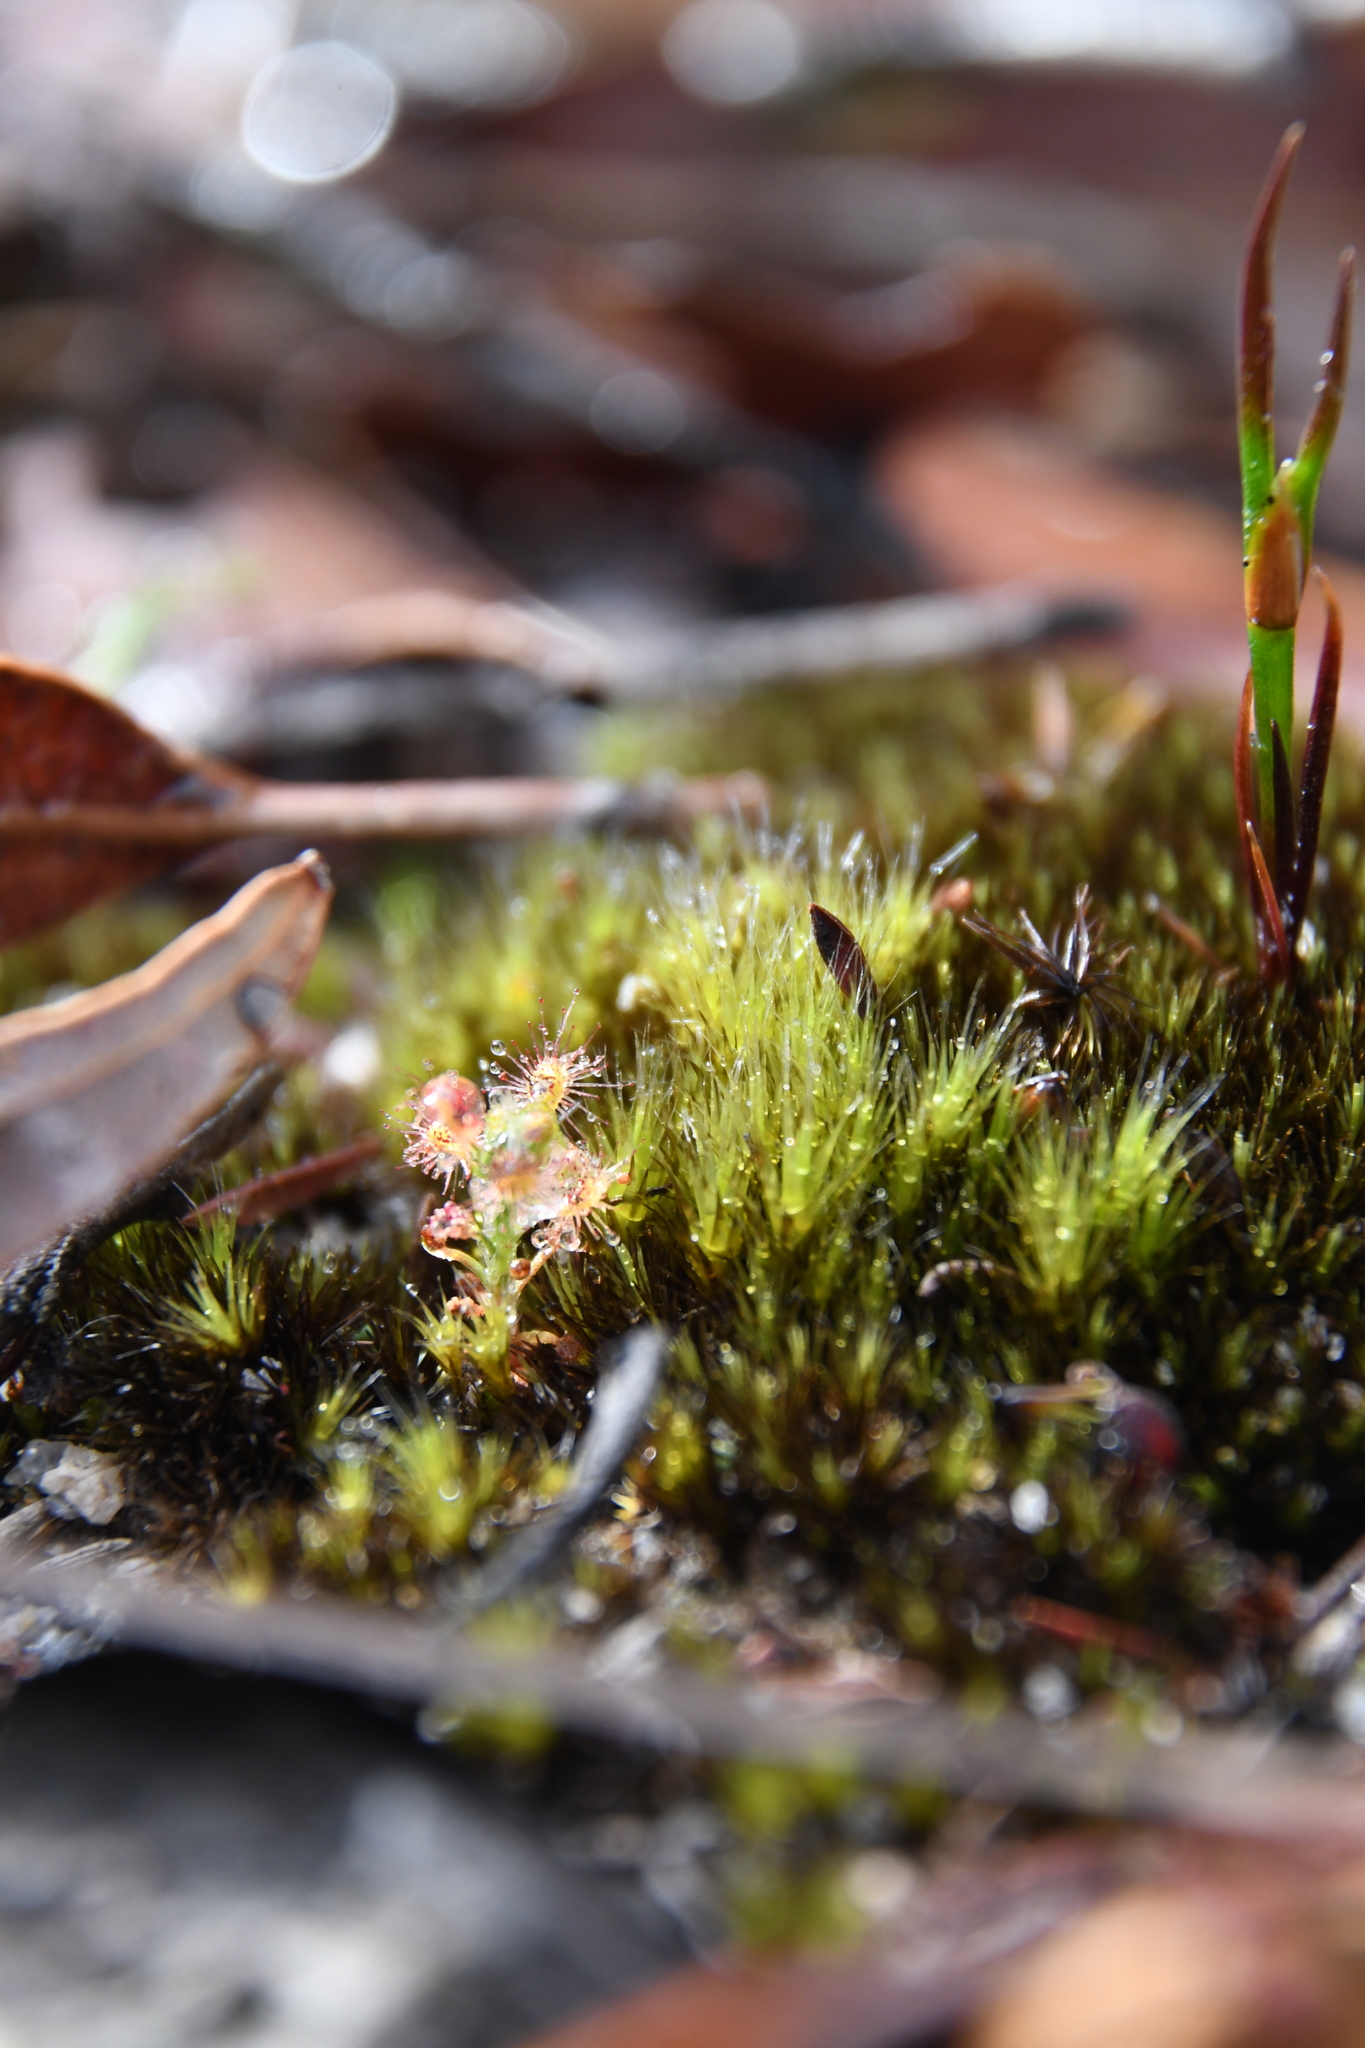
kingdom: Plantae
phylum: Tracheophyta
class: Magnoliopsida
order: Caryophyllales
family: Droseraceae
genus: Drosera
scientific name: Drosera paleacea
